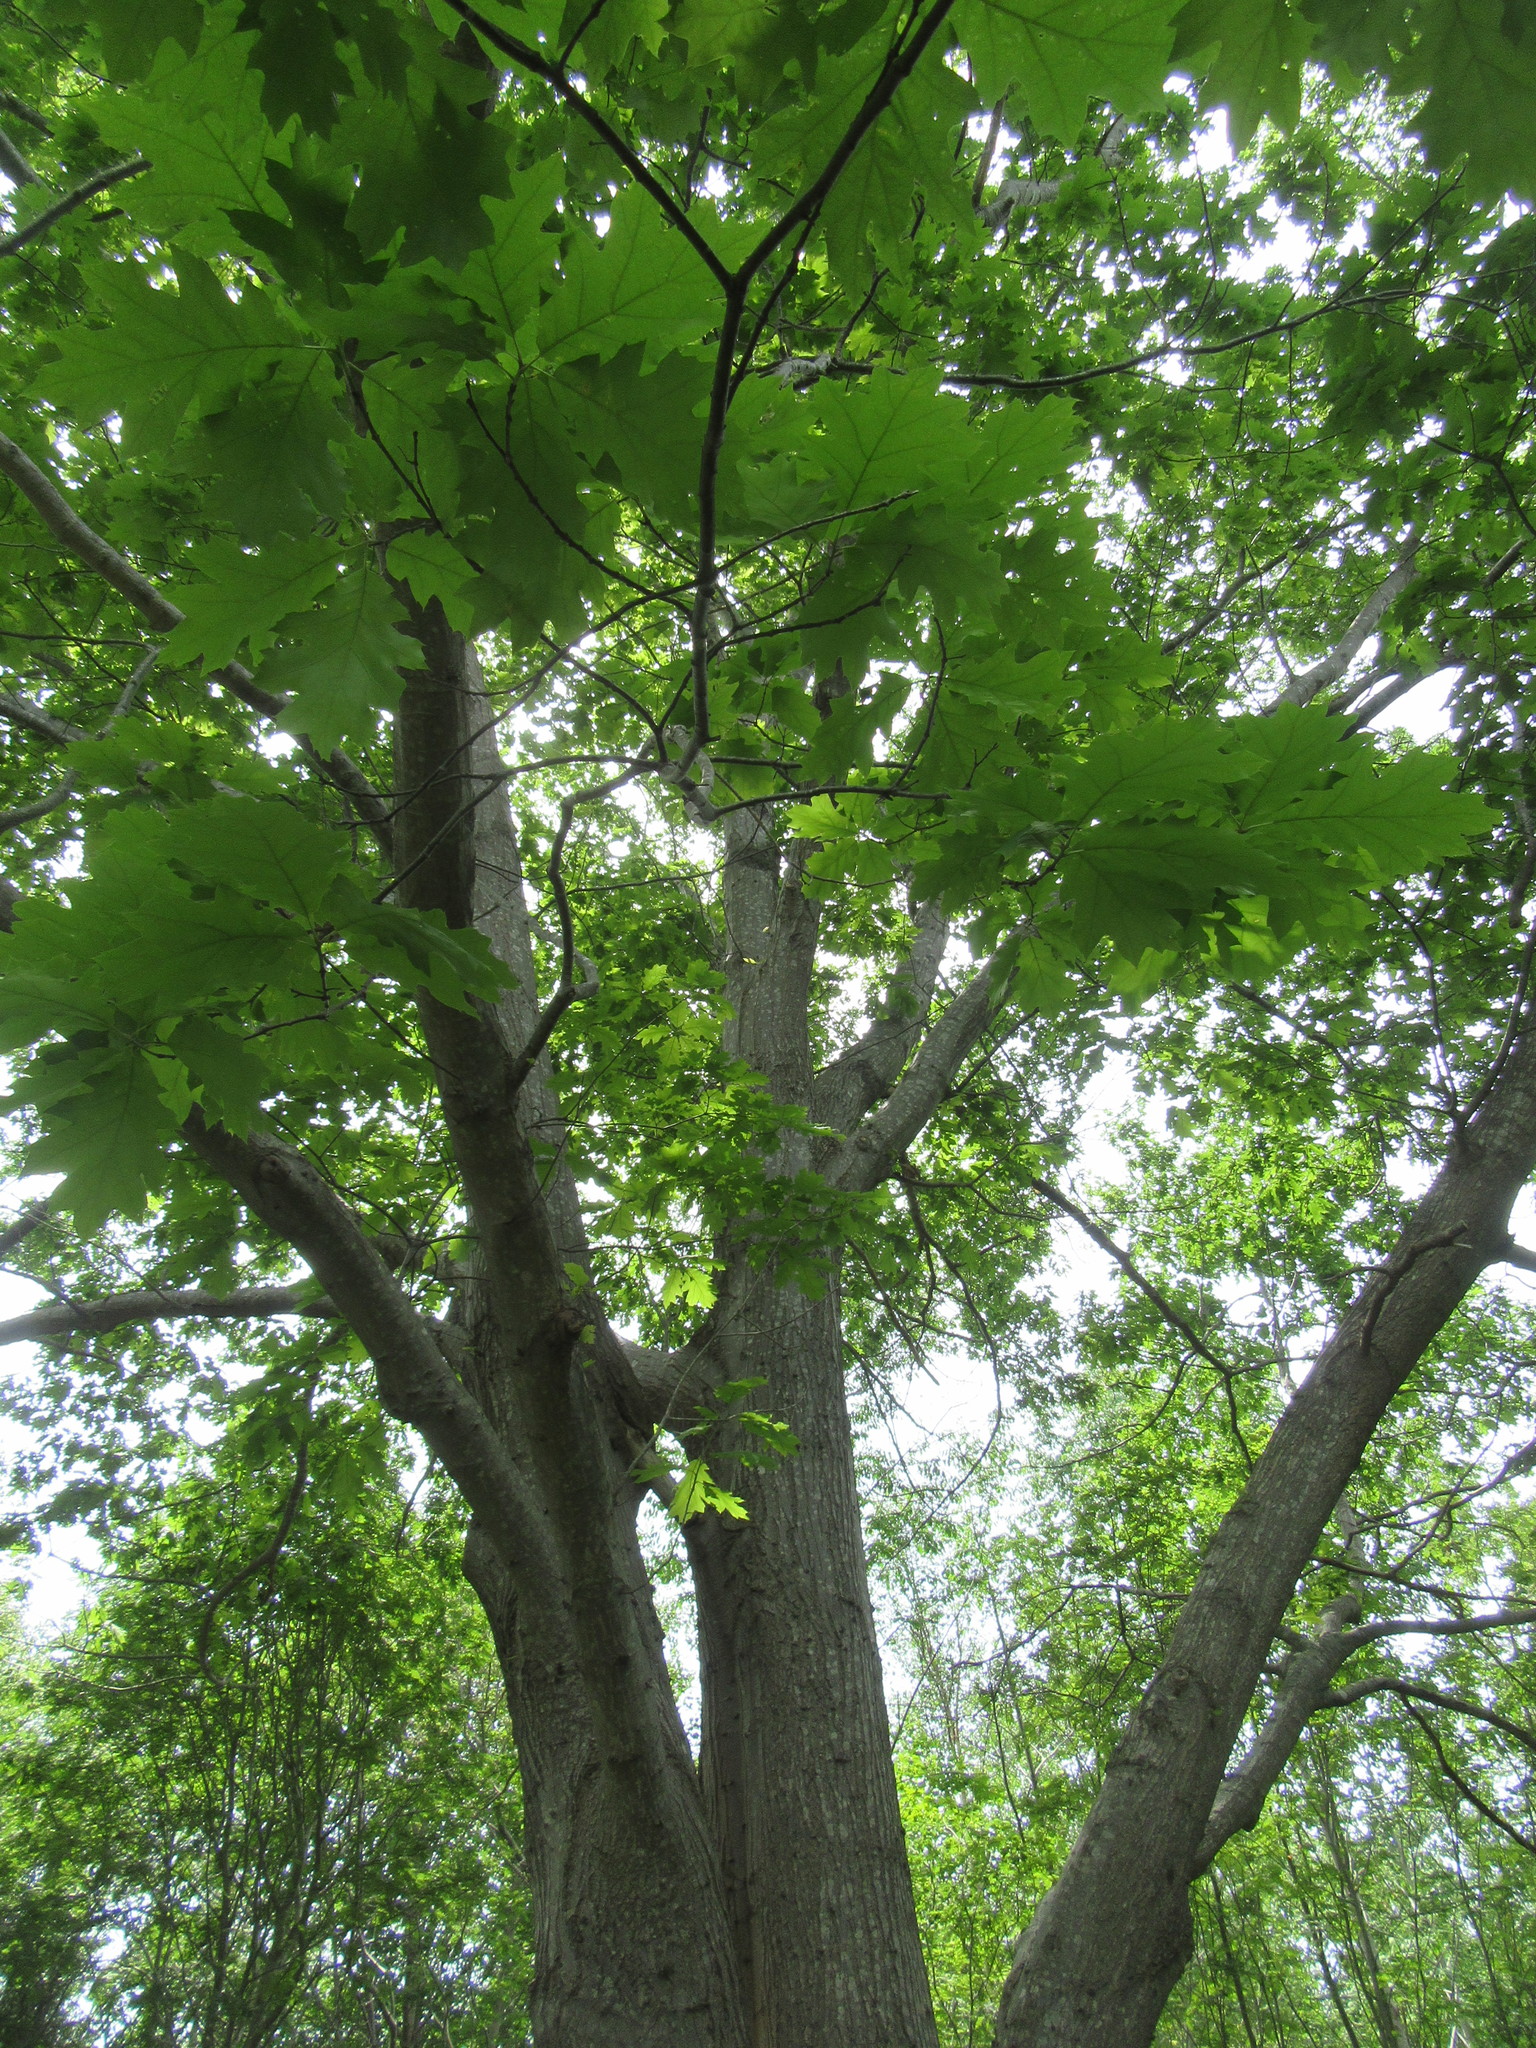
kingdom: Plantae
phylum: Tracheophyta
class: Magnoliopsida
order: Fagales
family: Fagaceae
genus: Quercus
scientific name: Quercus rubra
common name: Red oak
